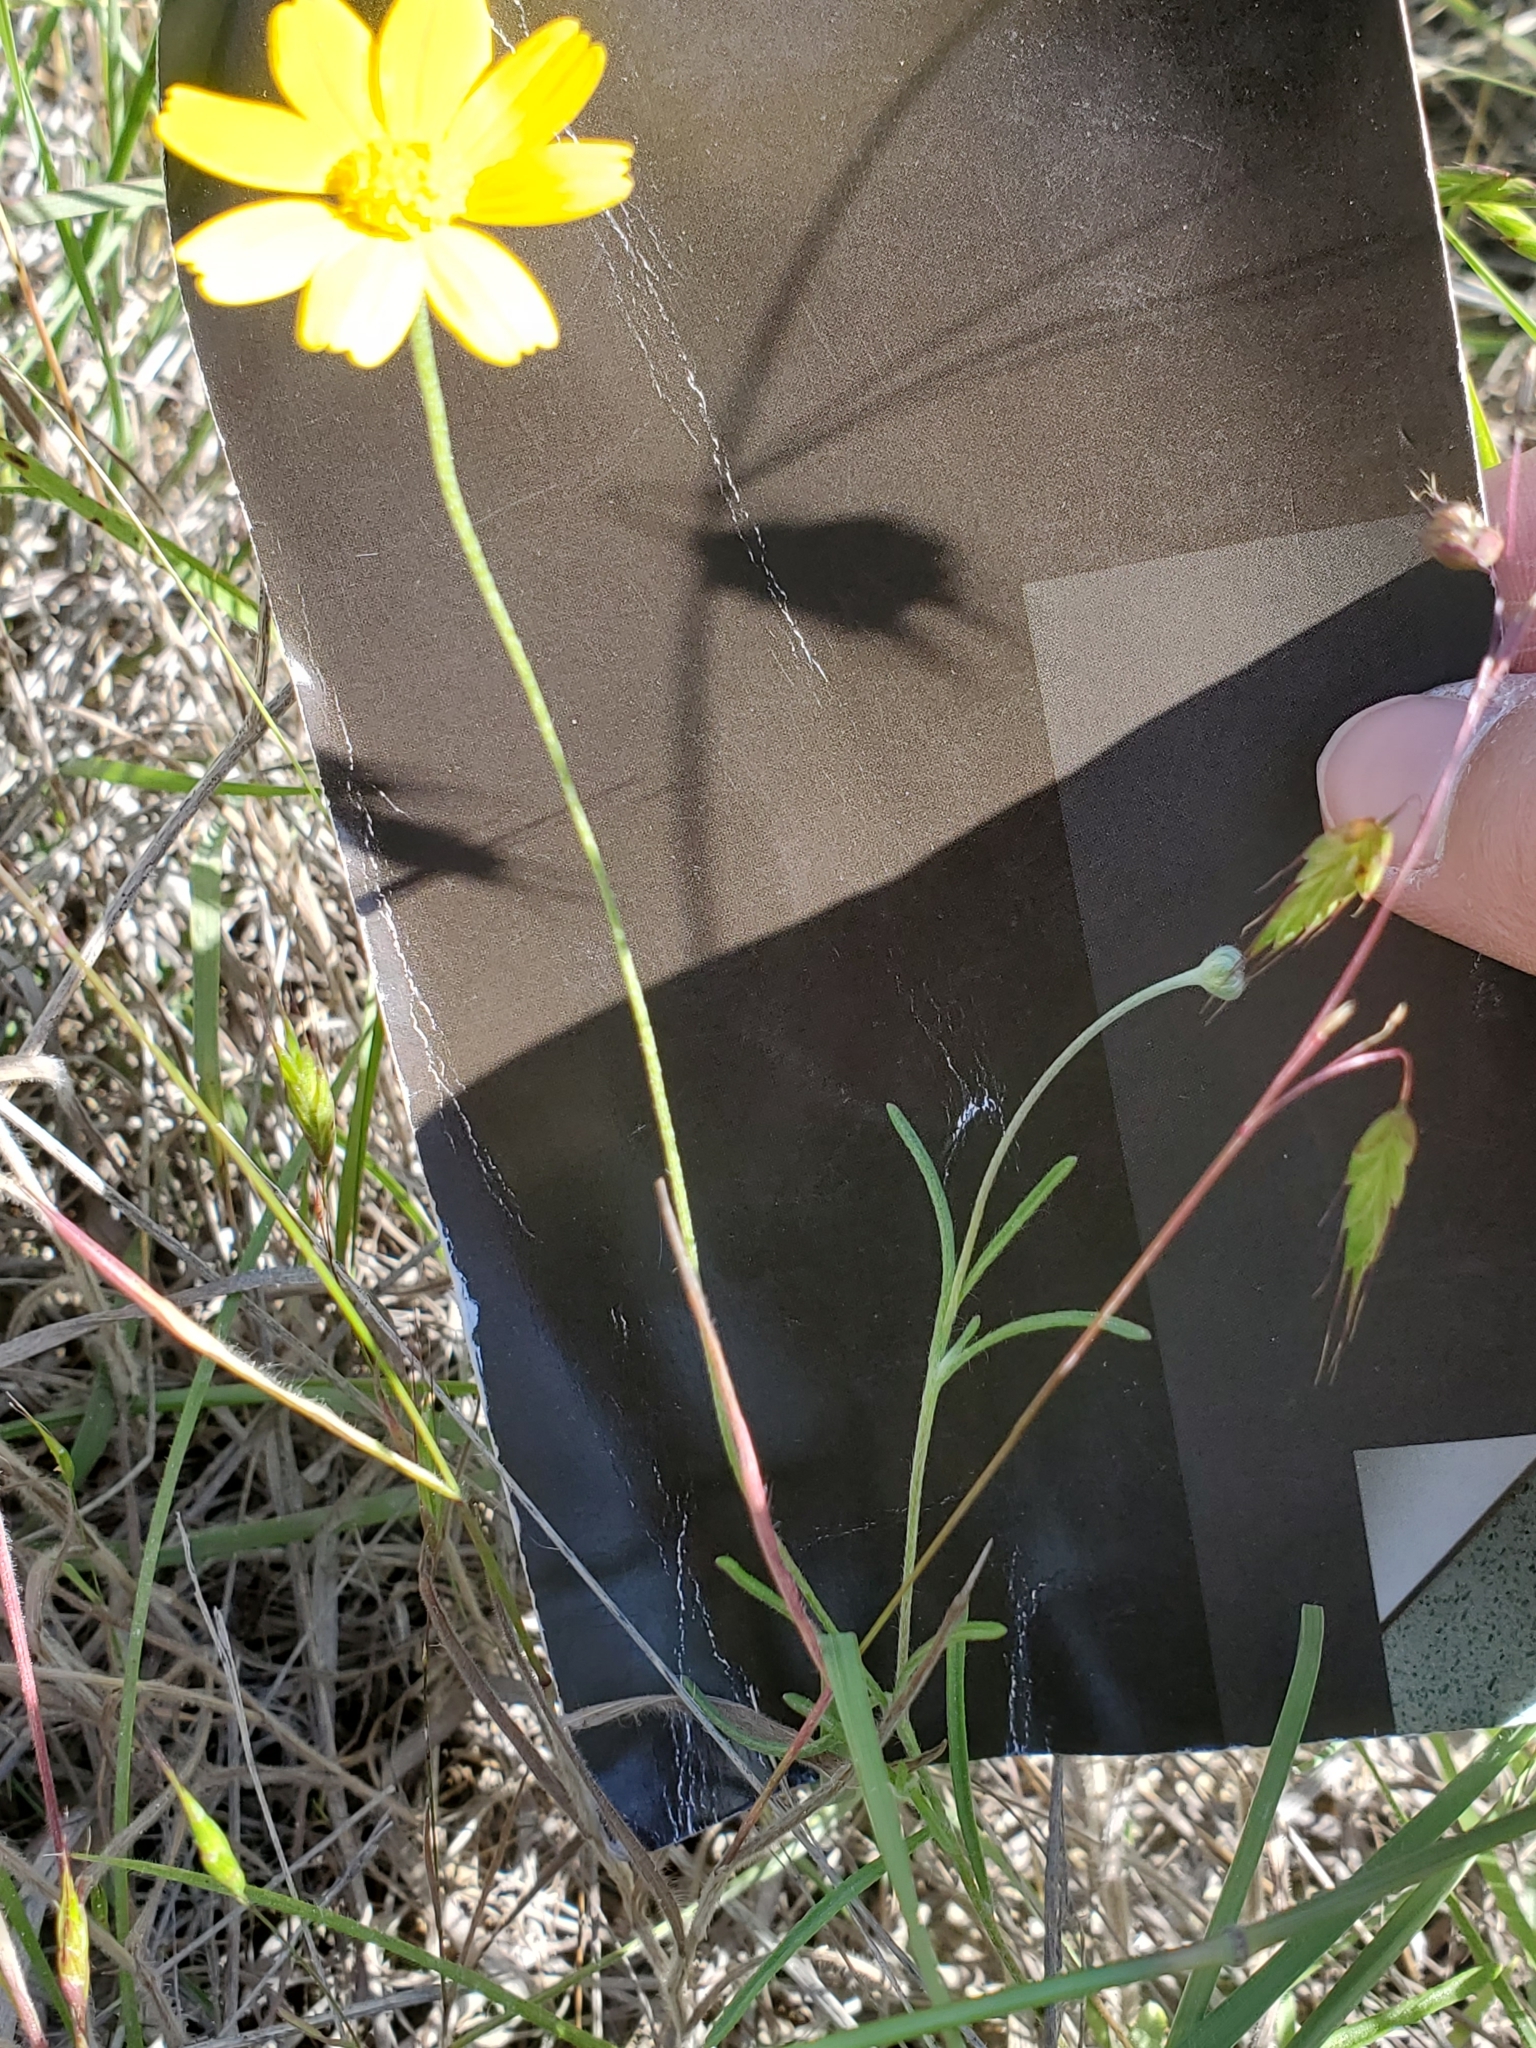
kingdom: Plantae
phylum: Tracheophyta
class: Magnoliopsida
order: Asterales
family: Asteraceae
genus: Tetraneuris
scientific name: Tetraneuris linearifolia
